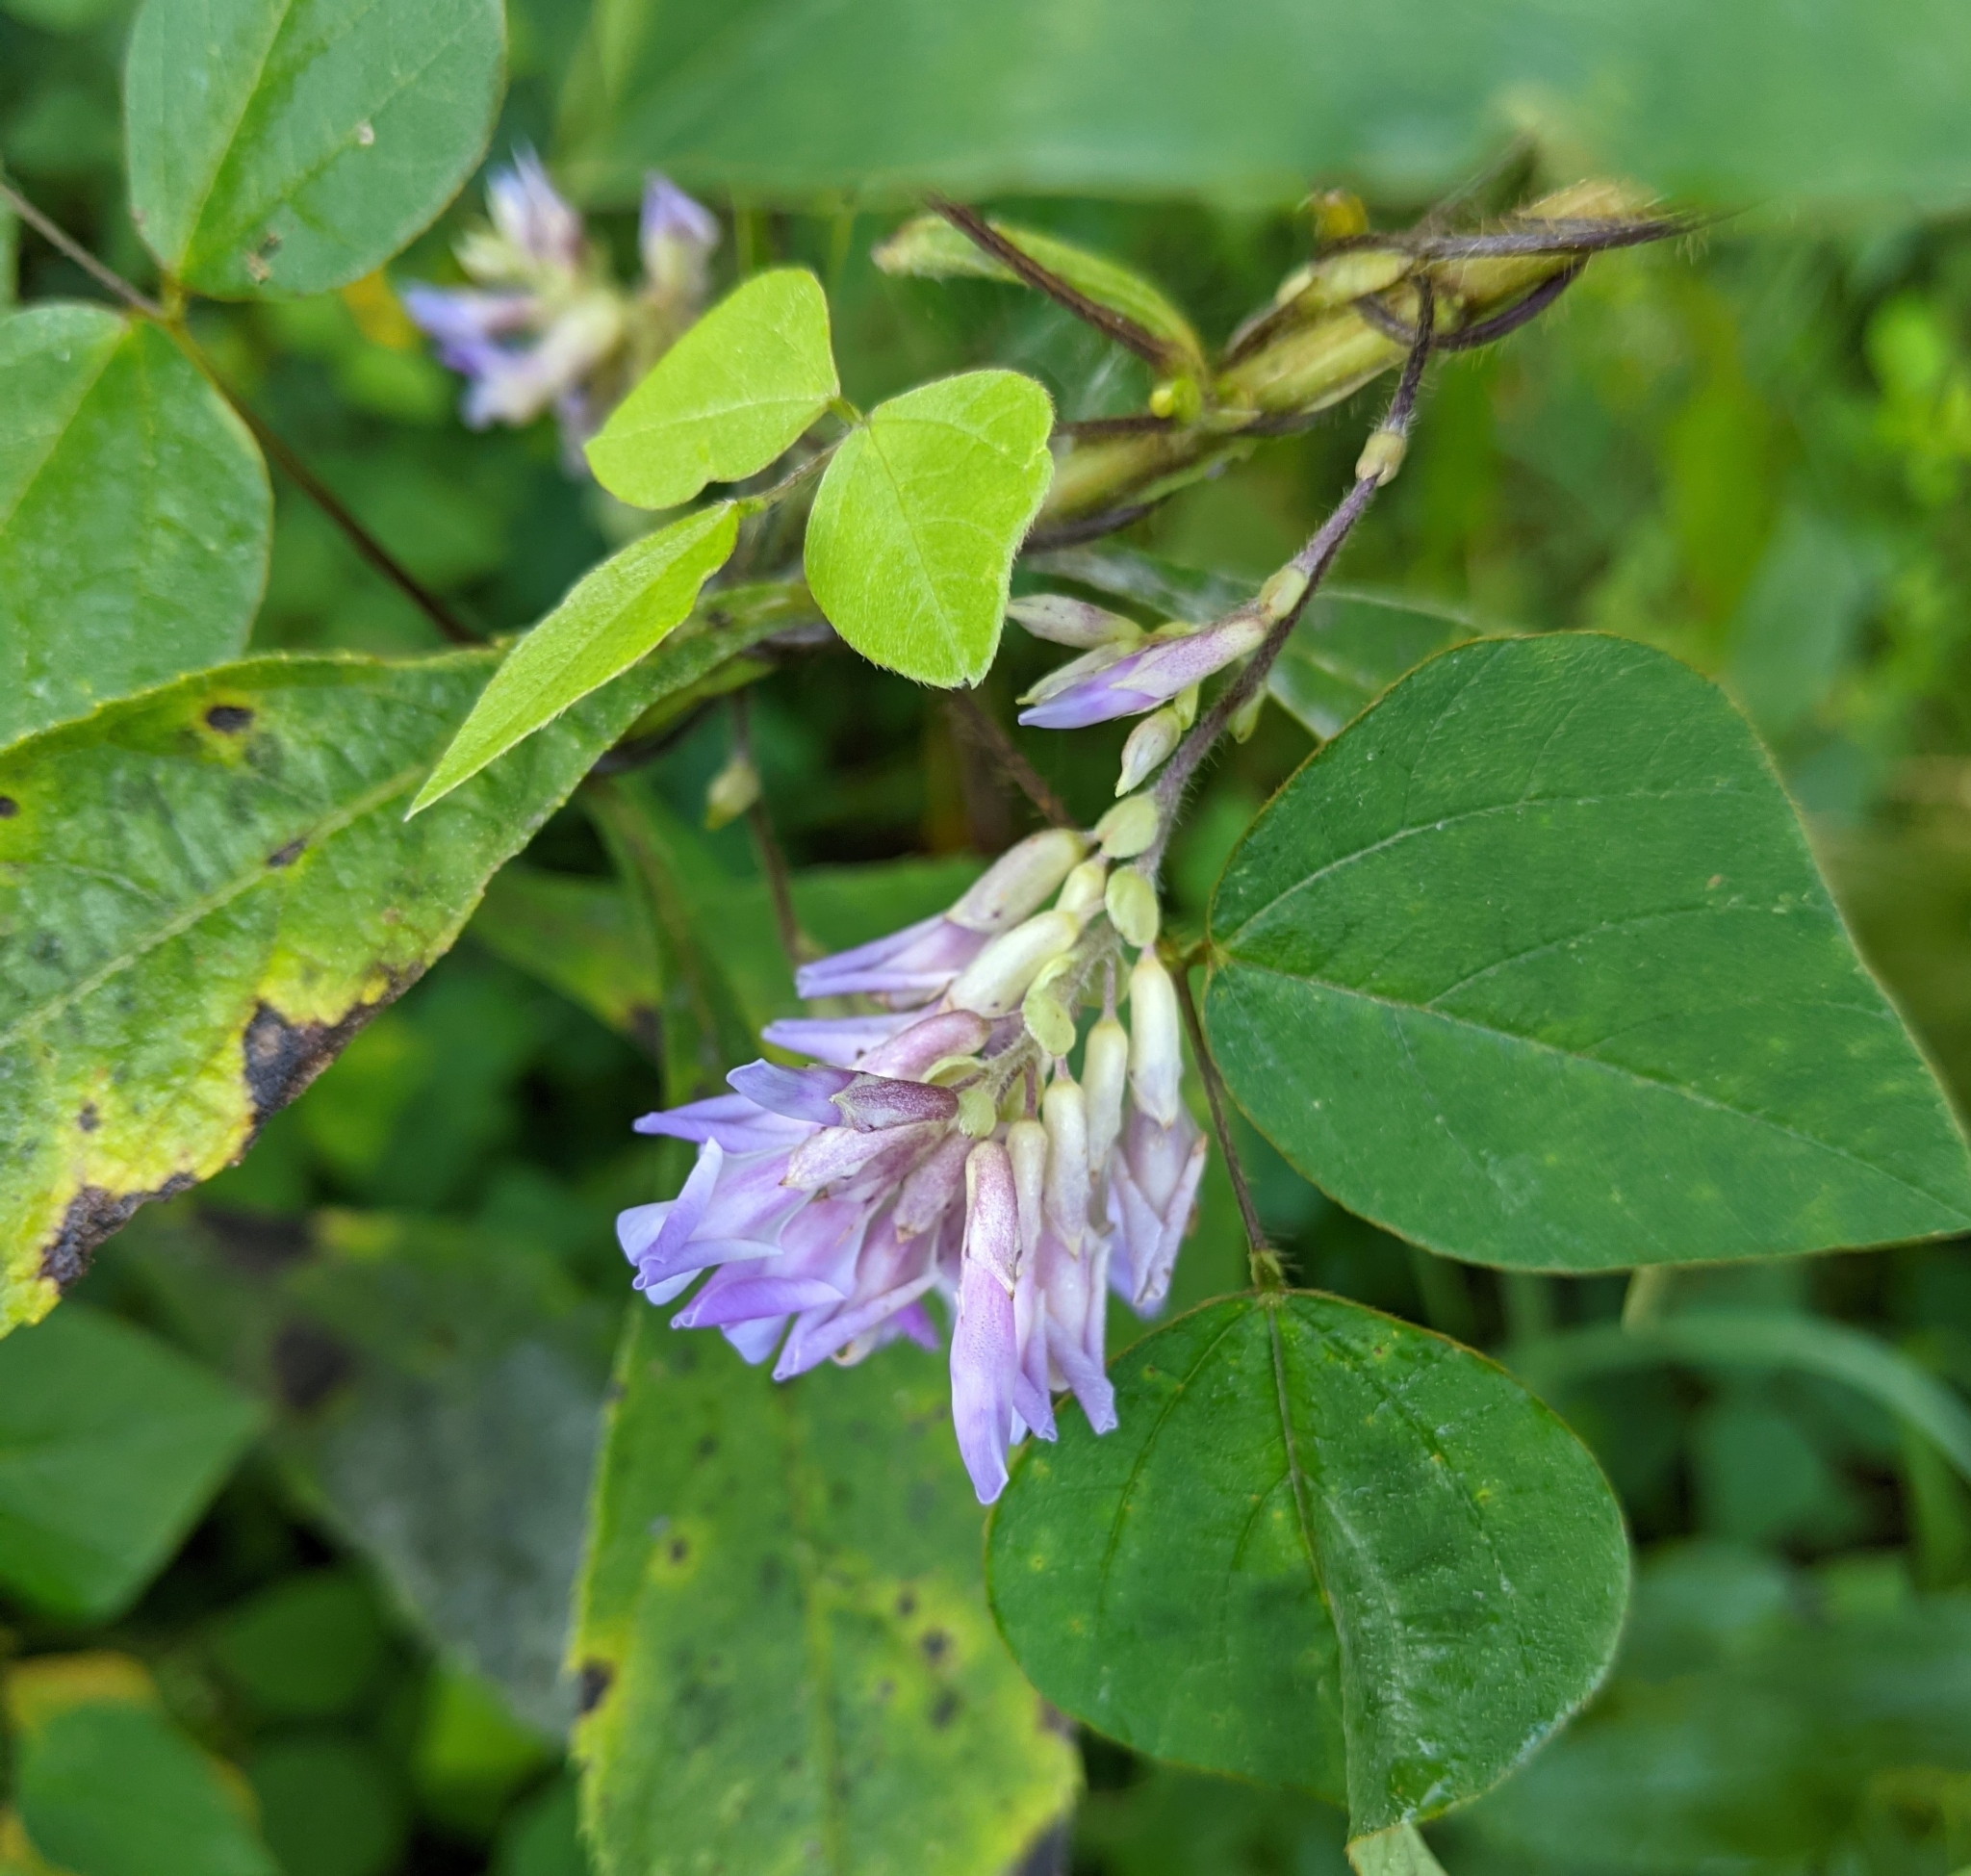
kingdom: Plantae
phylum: Tracheophyta
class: Magnoliopsida
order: Fabales
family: Fabaceae
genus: Amphicarpaea
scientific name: Amphicarpaea bracteata
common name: American hog peanut
